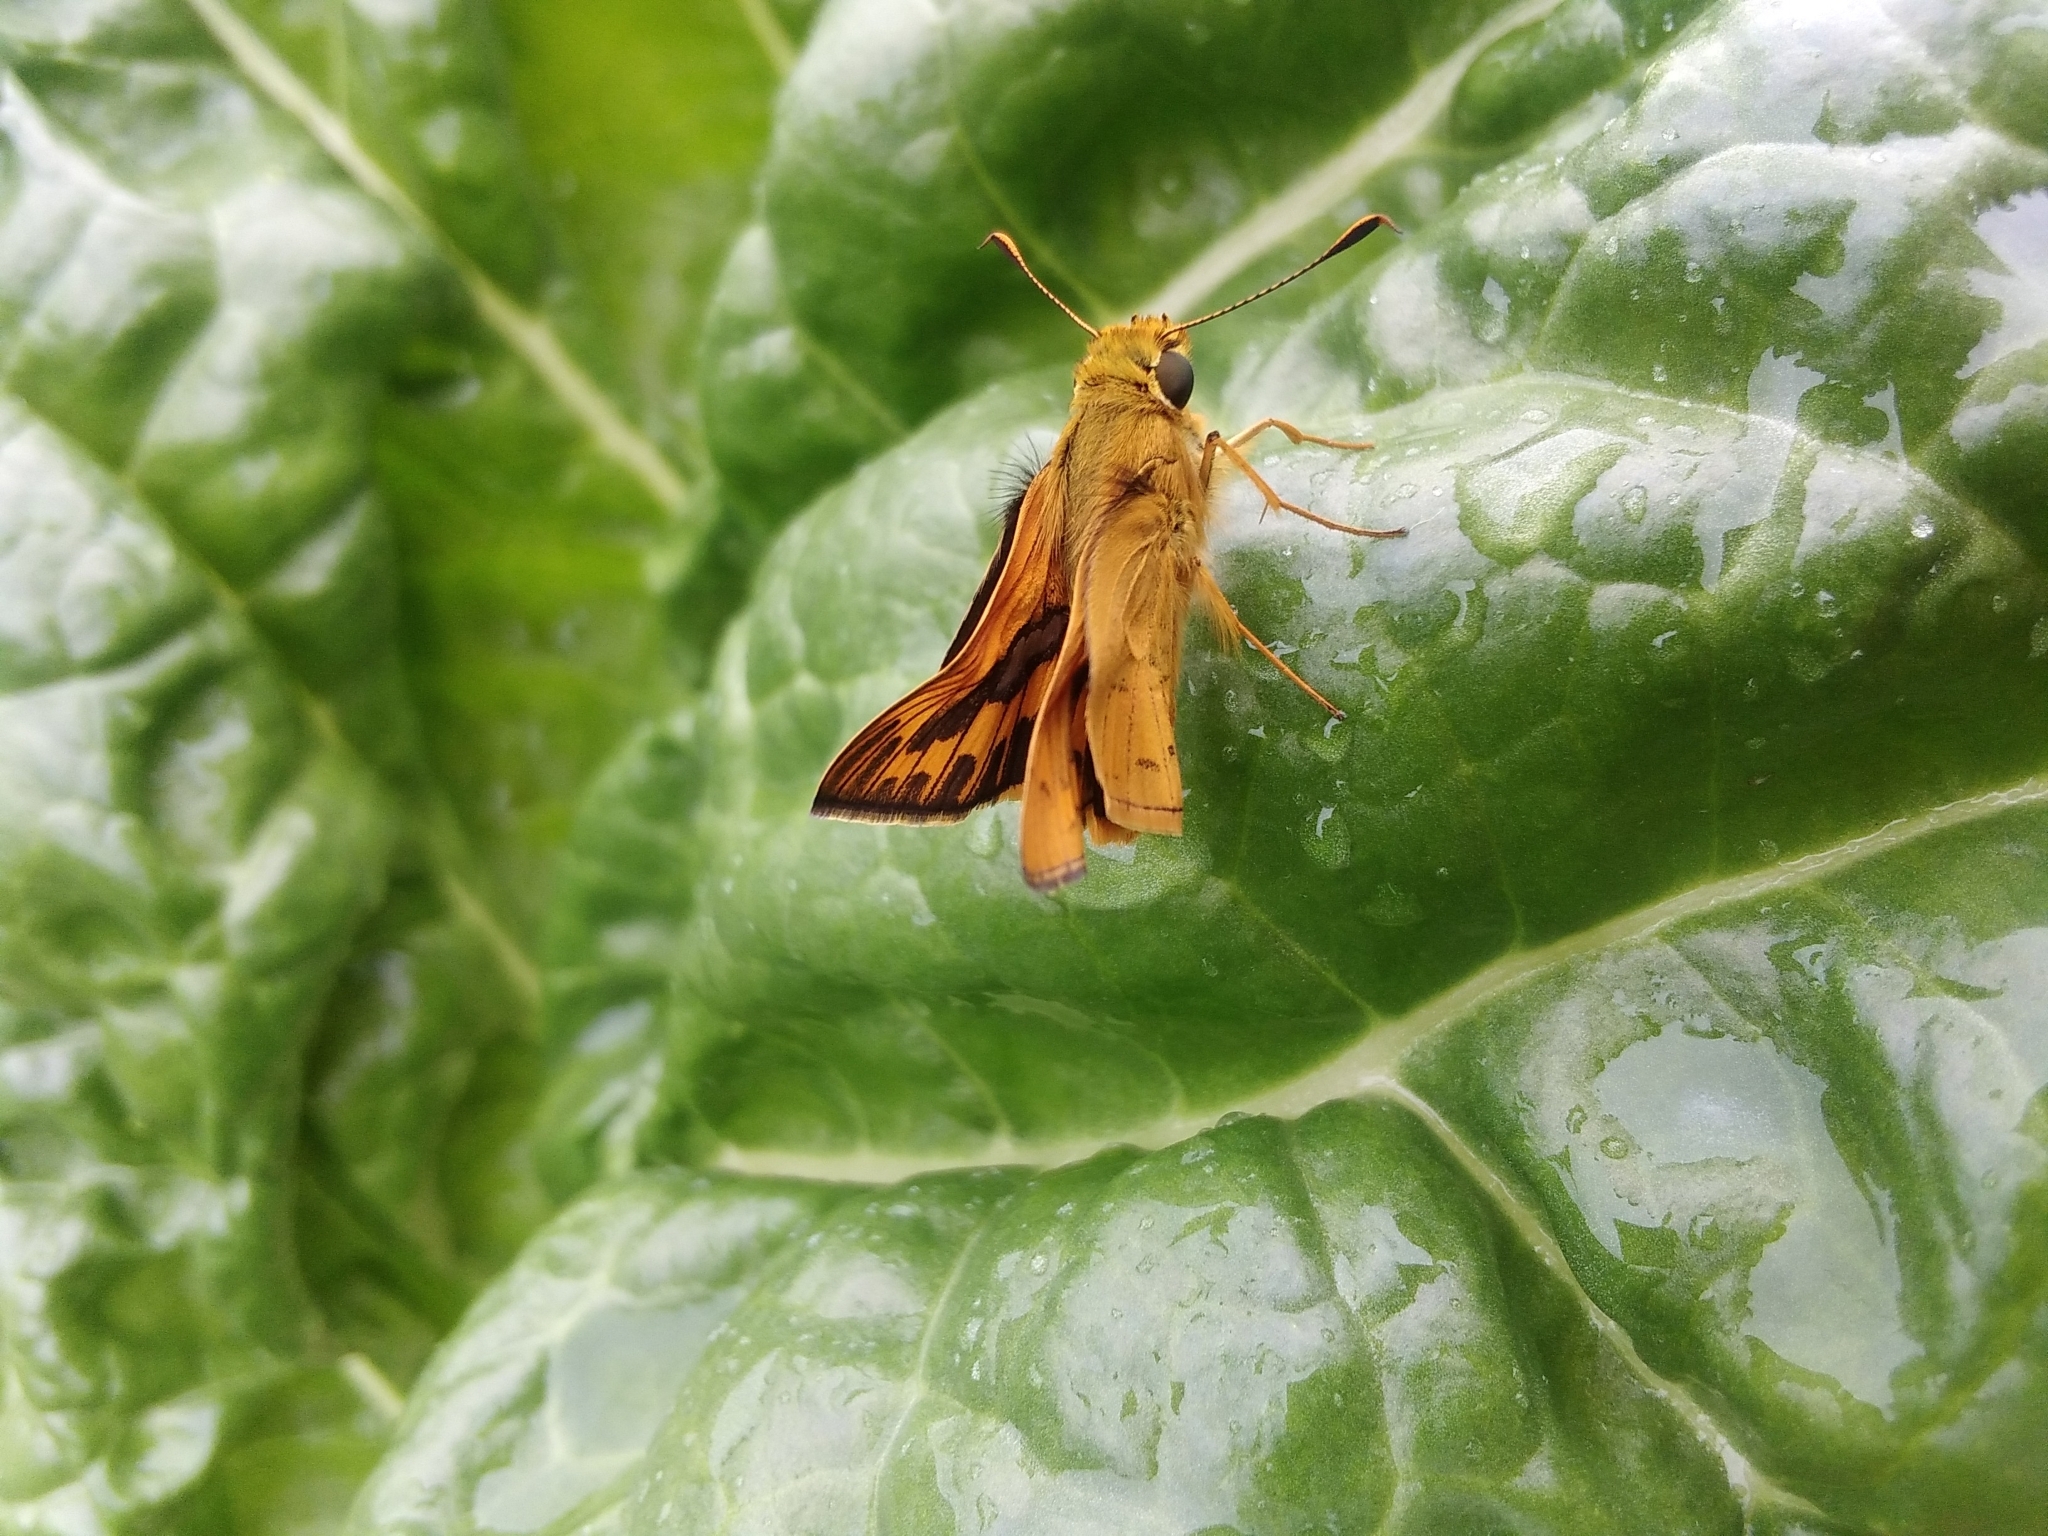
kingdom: Animalia
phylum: Arthropoda
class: Insecta
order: Lepidoptera
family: Hesperiidae
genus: Telicota
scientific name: Telicota ancilla
